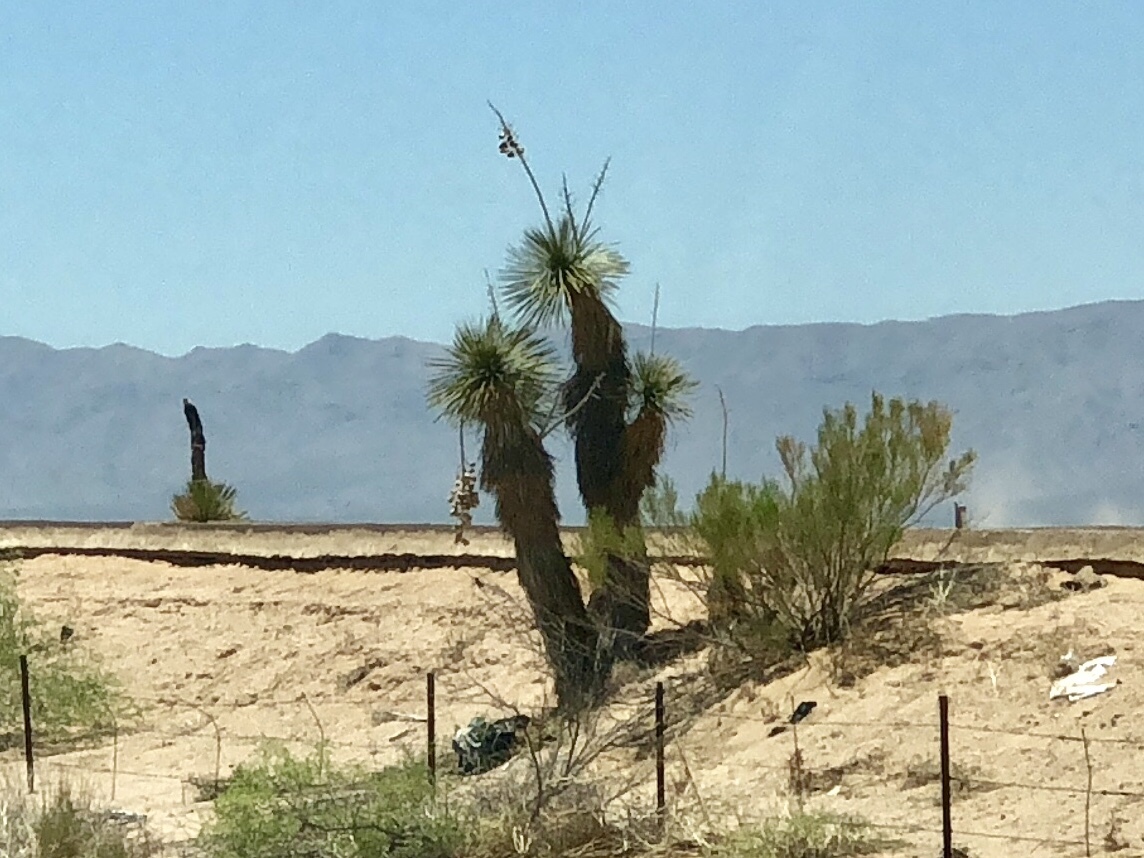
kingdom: Plantae
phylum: Tracheophyta
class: Liliopsida
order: Asparagales
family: Asparagaceae
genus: Yucca
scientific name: Yucca elata
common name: Palmella
